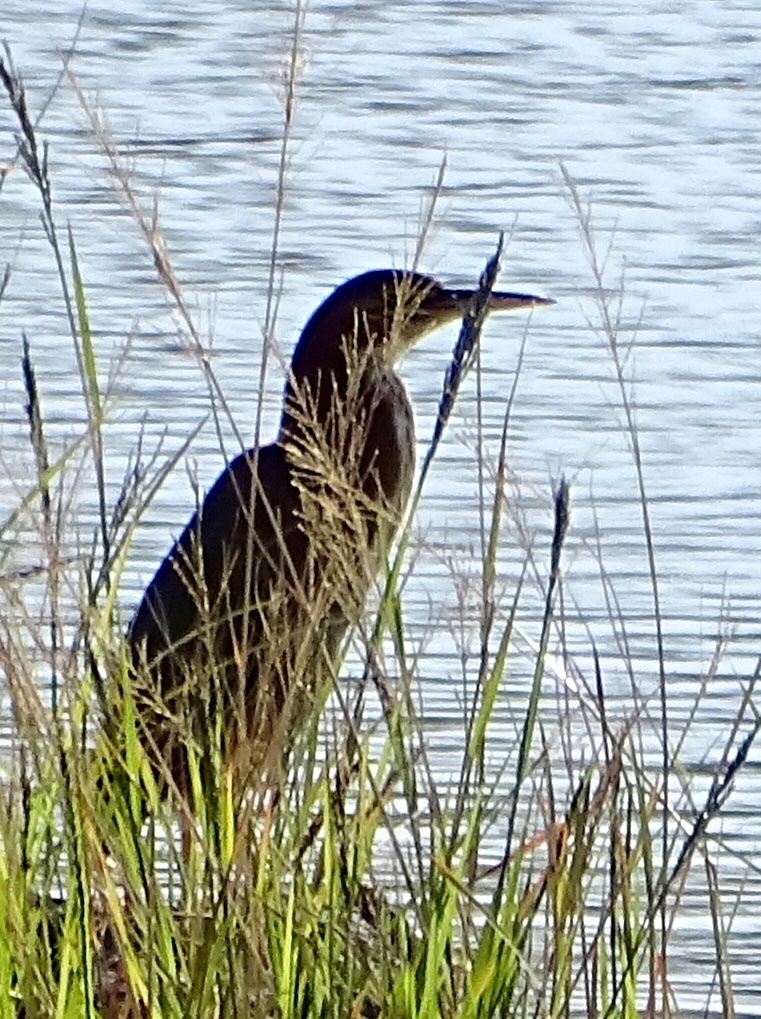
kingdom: Animalia
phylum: Chordata
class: Aves
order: Pelecaniformes
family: Ardeidae
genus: Butorides
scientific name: Butorides virescens
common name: Green heron
